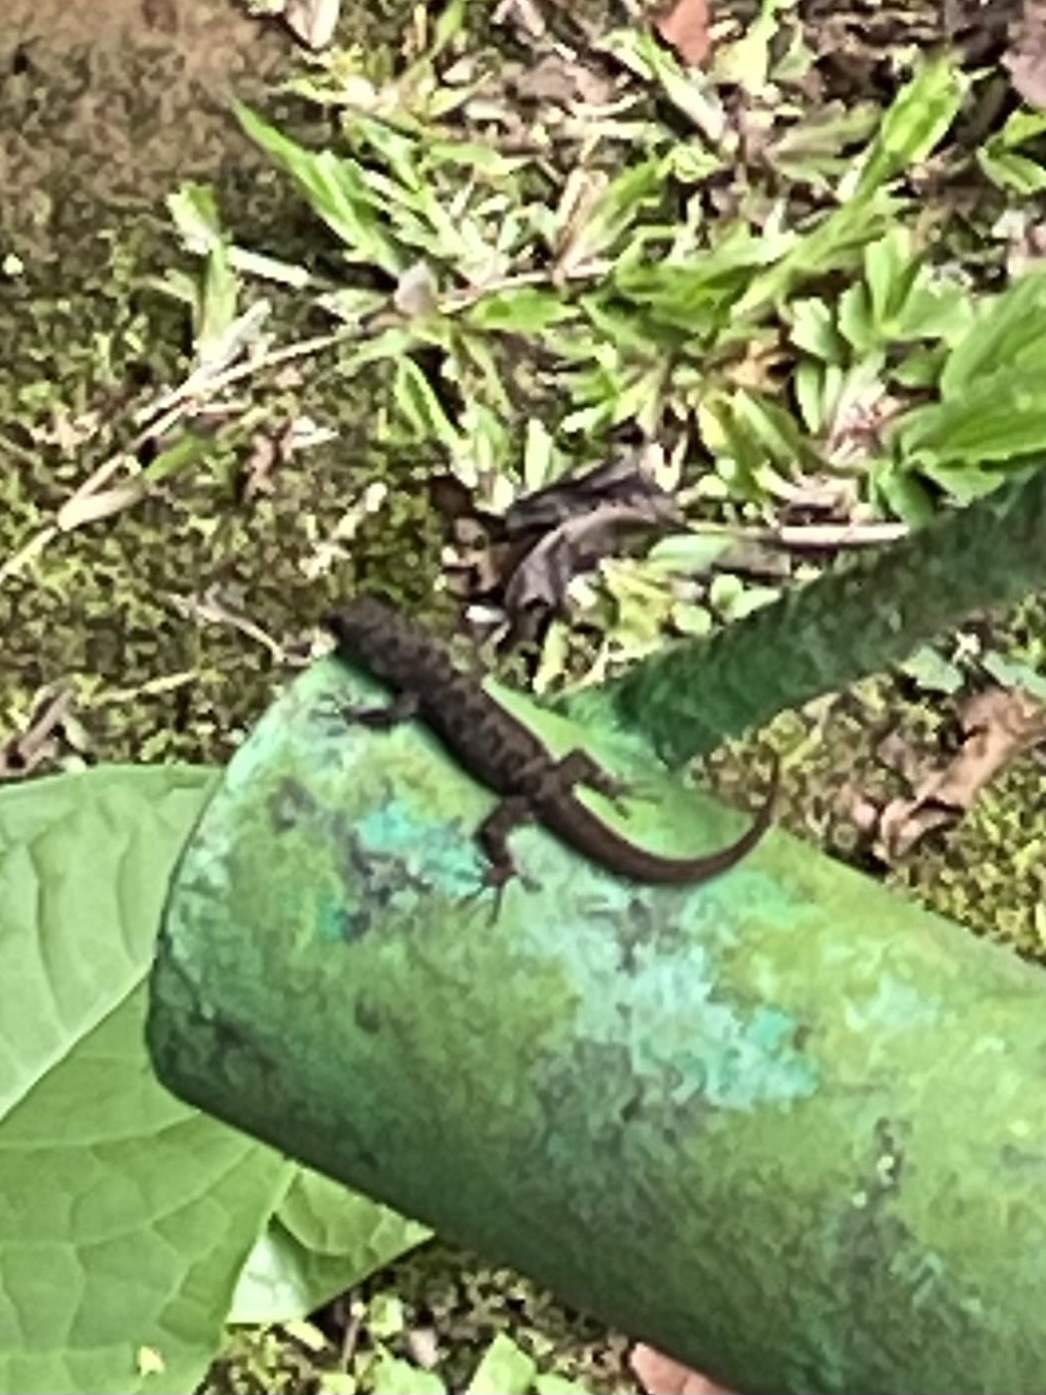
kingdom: Animalia
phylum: Chordata
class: Squamata
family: Sphaerodactylidae
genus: Gonatodes
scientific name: Gonatodes albogularis
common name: Yellow-headed gecko
